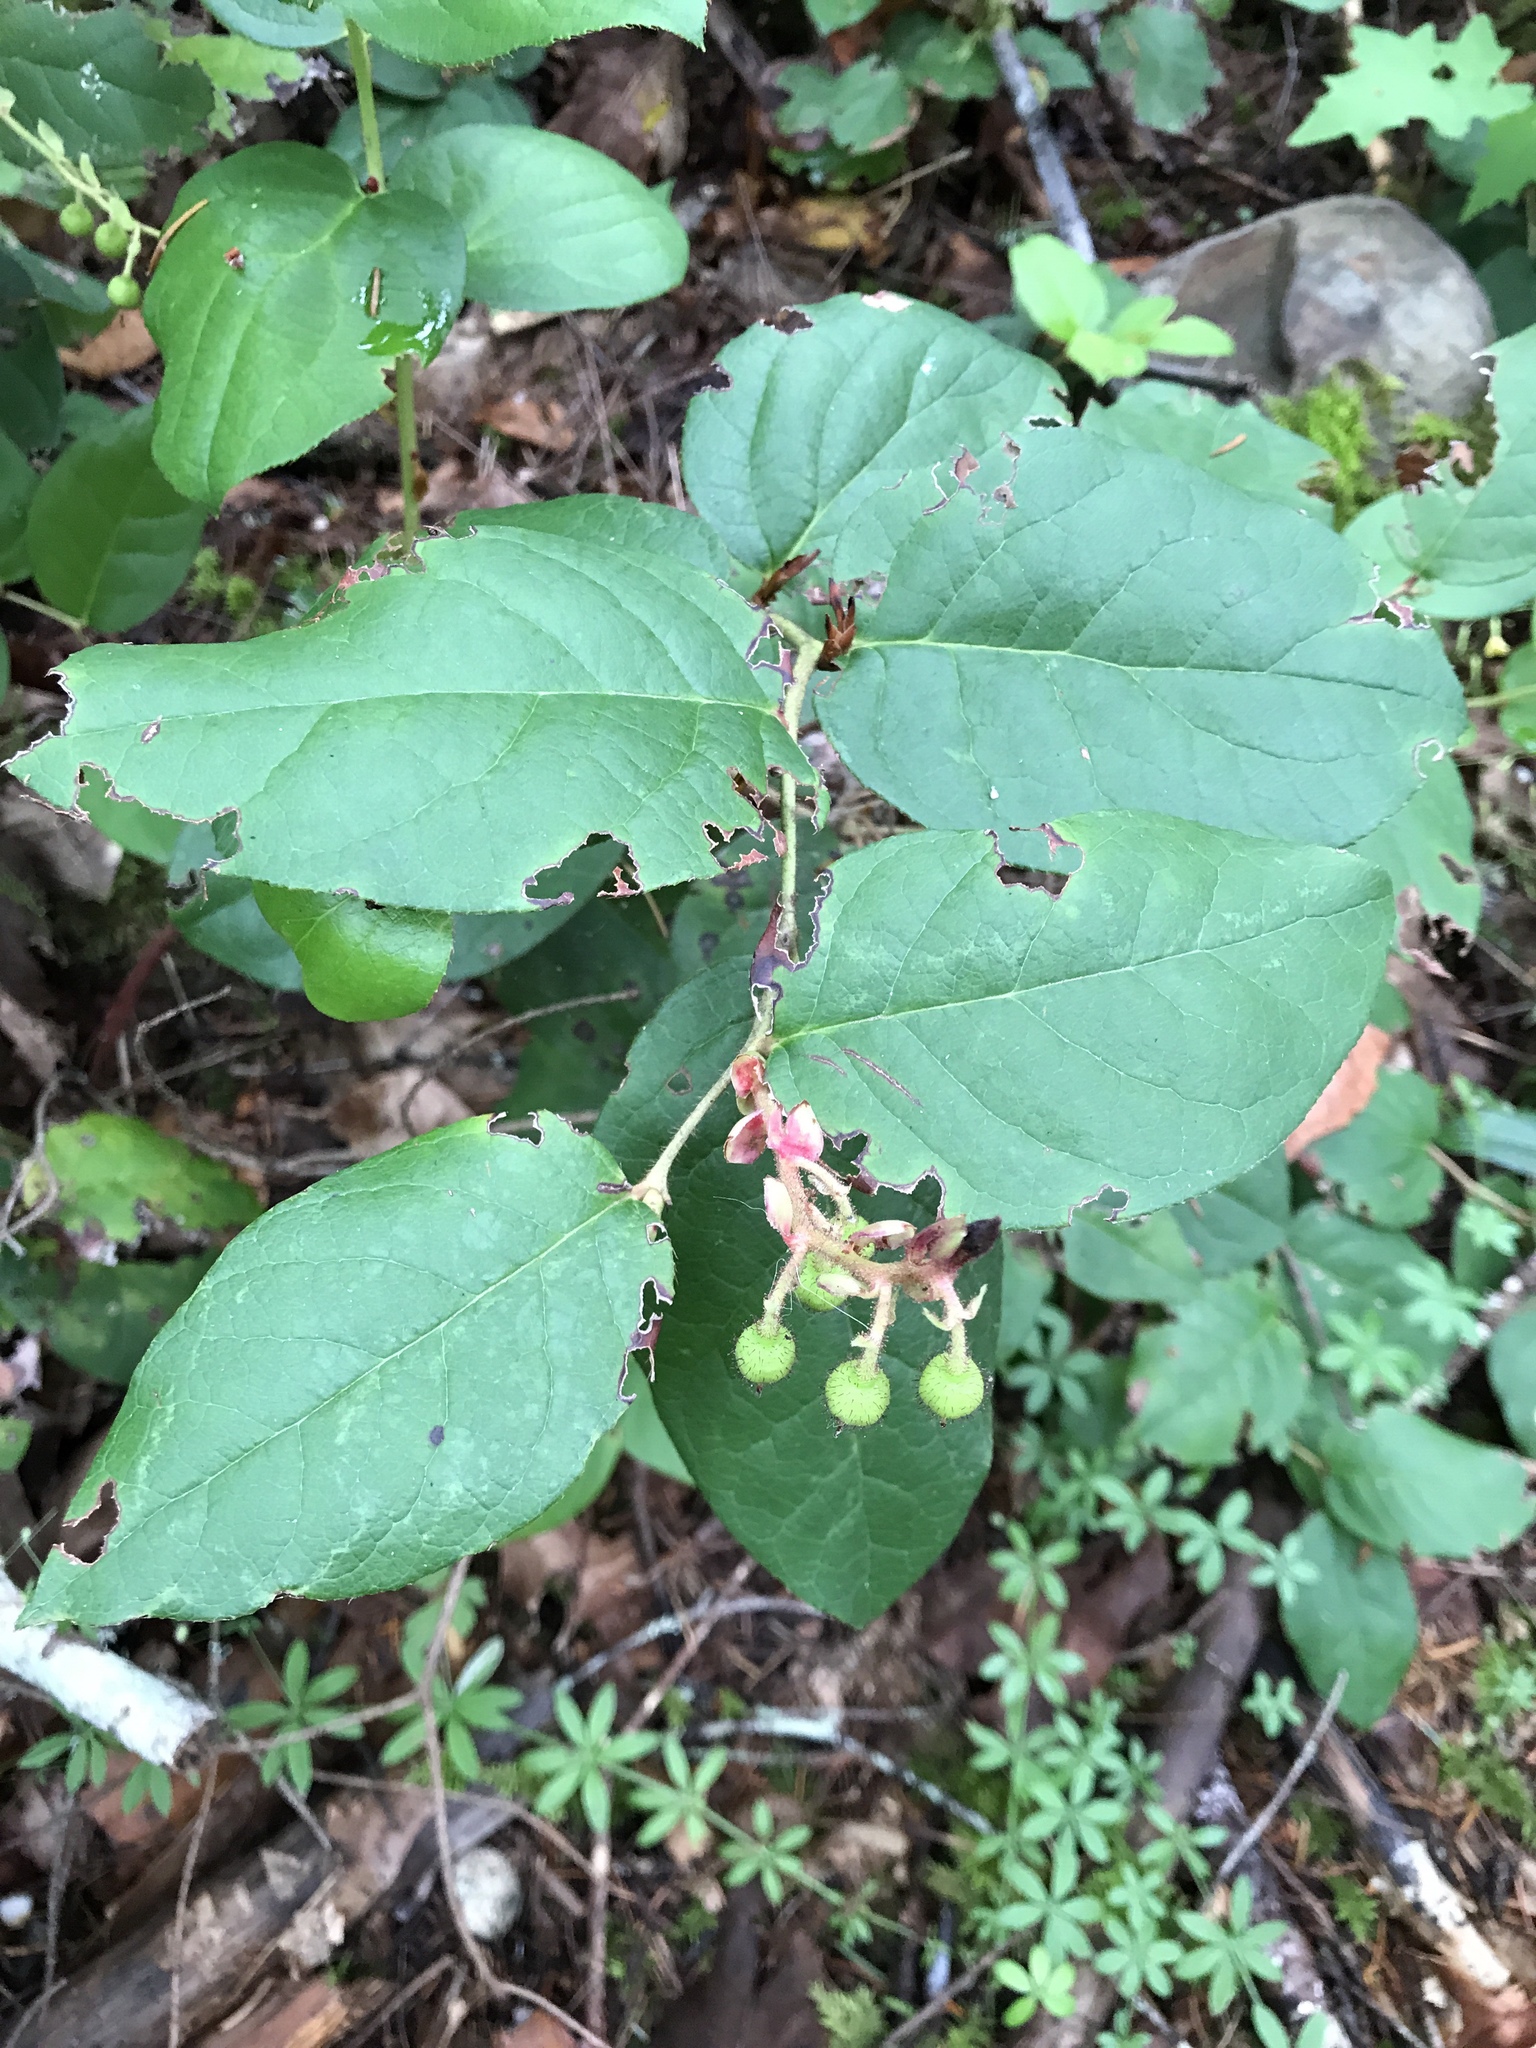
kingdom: Plantae
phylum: Tracheophyta
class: Magnoliopsida
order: Ericales
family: Ericaceae
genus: Gaultheria
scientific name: Gaultheria shallon
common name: Shallon
